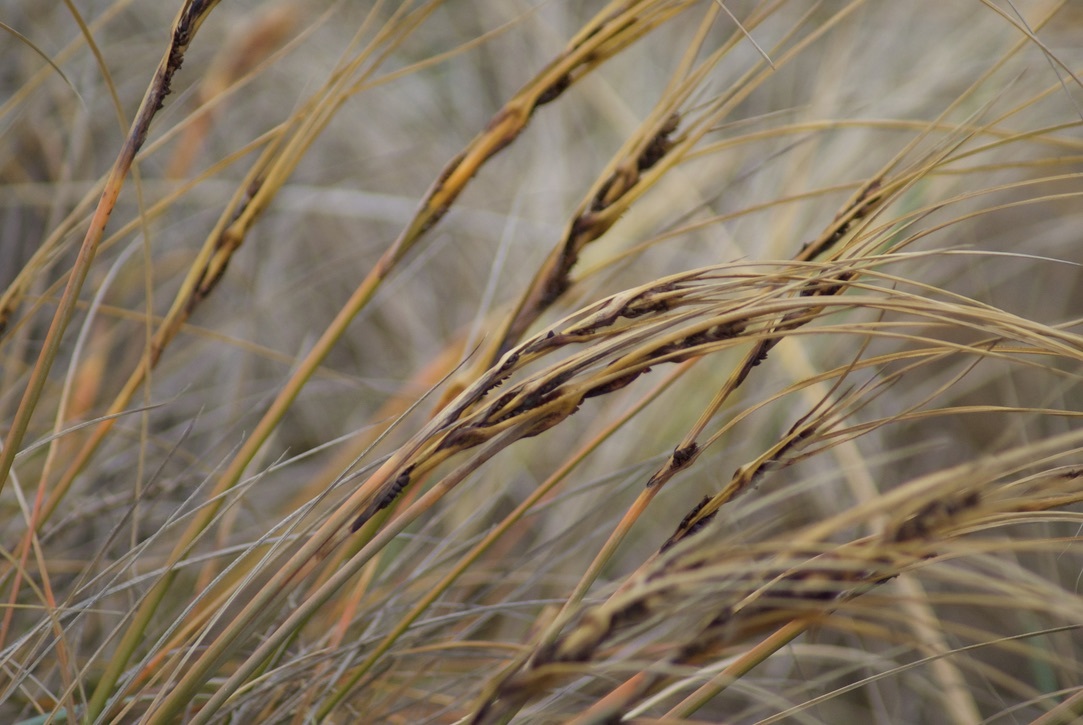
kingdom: Plantae
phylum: Tracheophyta
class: Liliopsida
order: Poales
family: Cyperaceae
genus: Ficinia
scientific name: Ficinia spiralis
